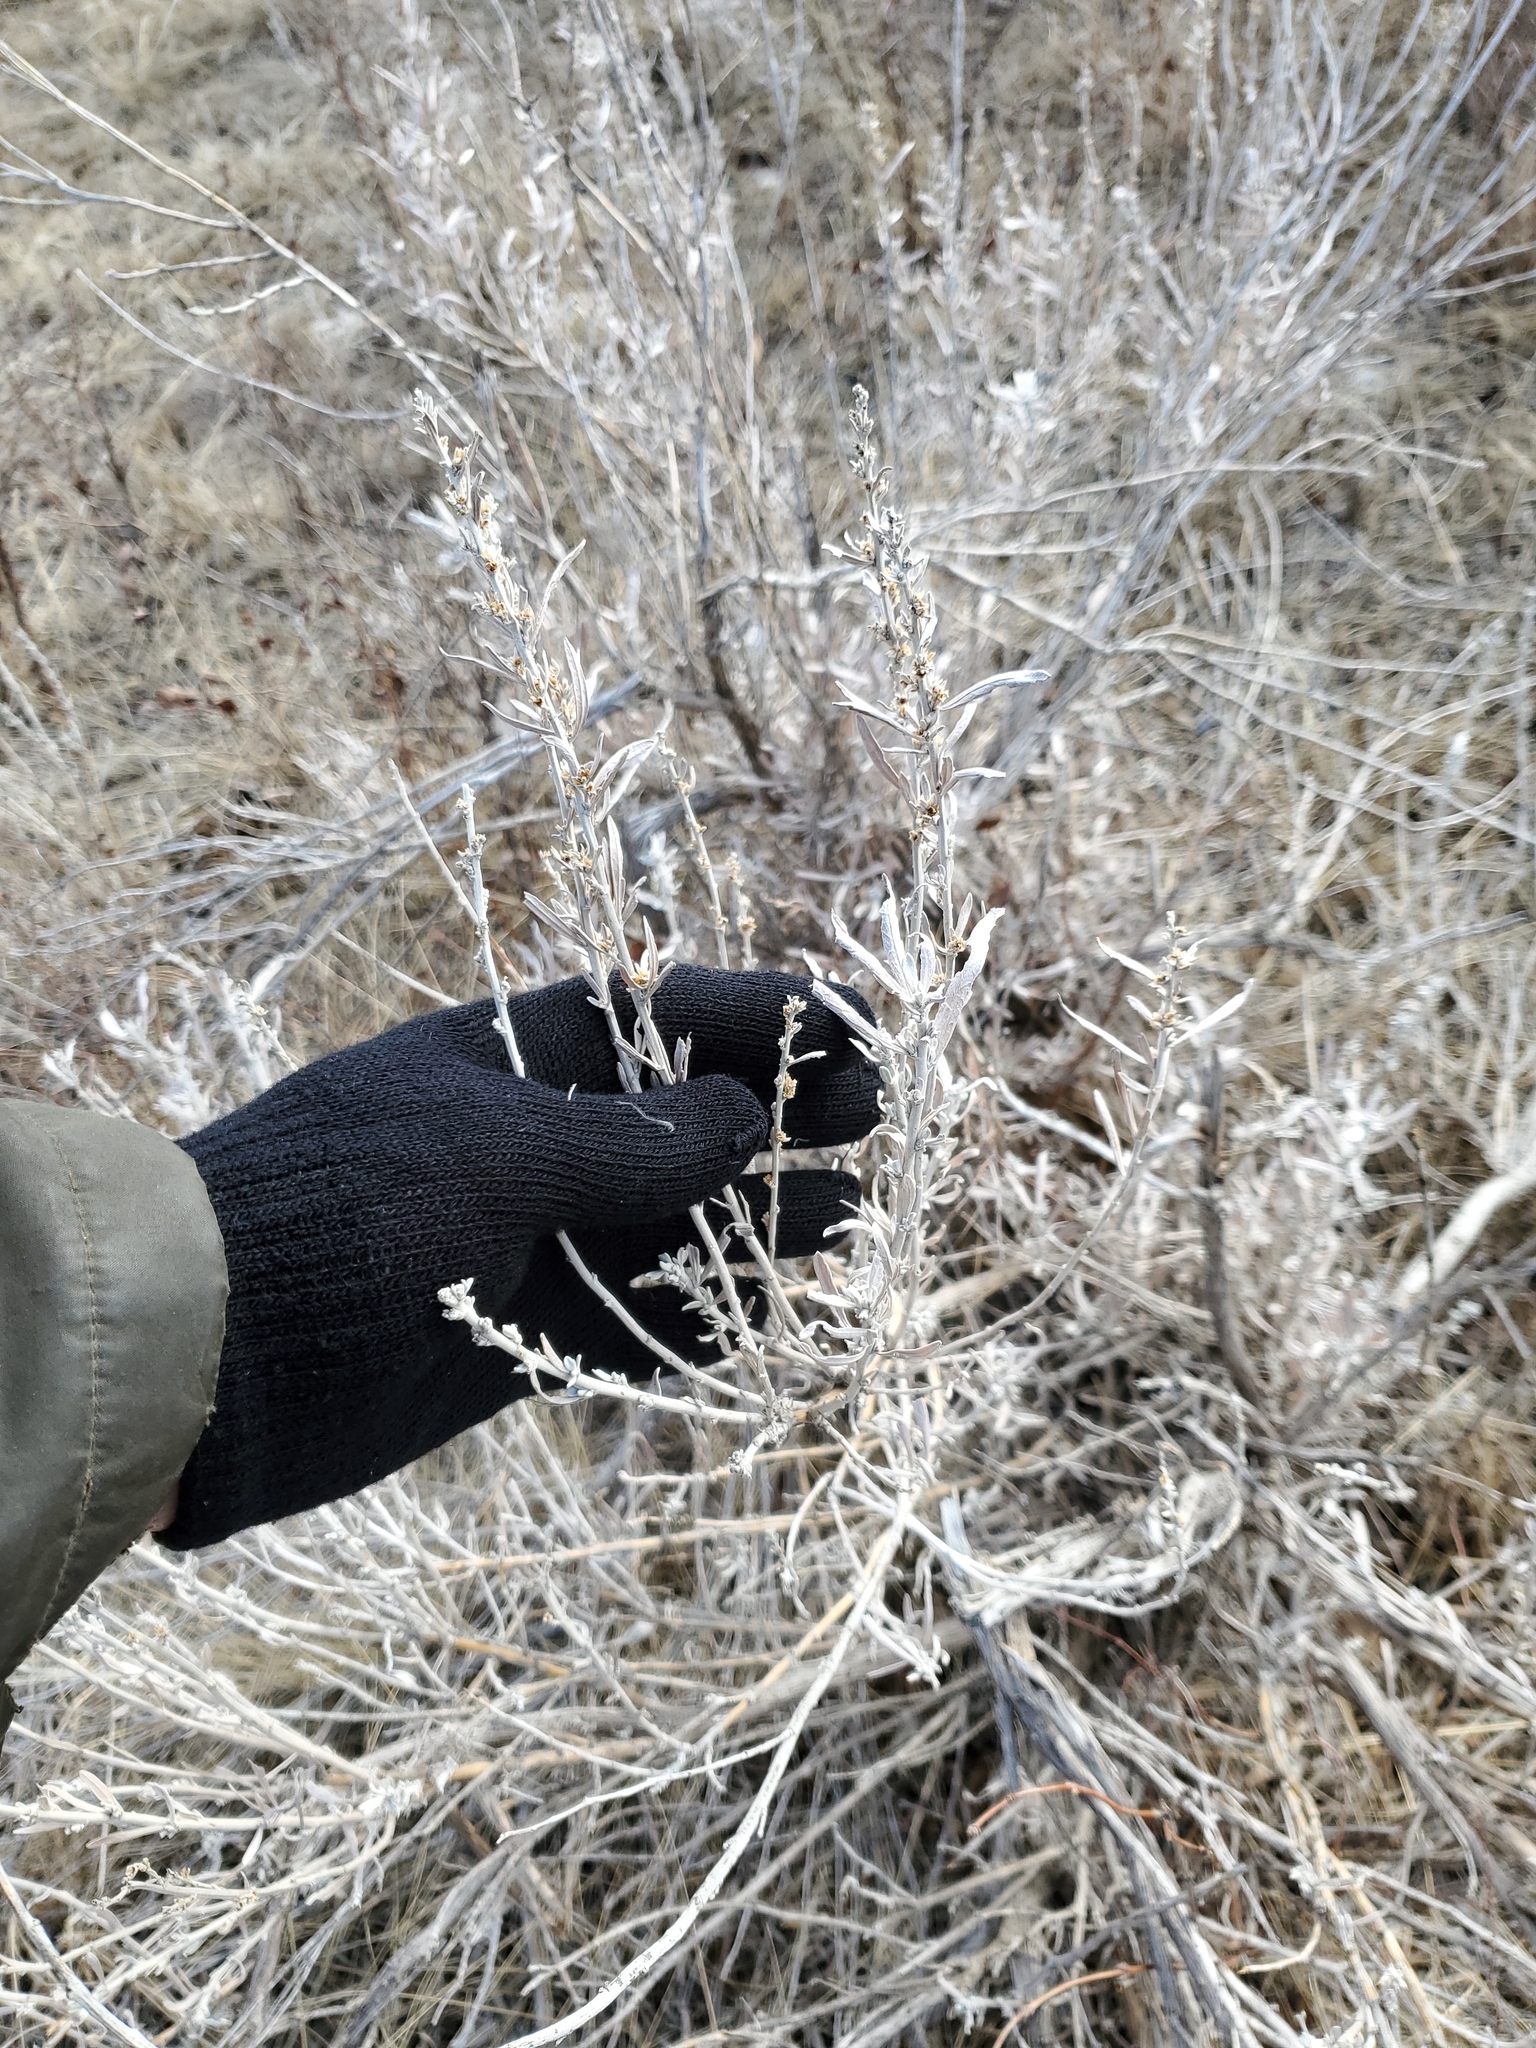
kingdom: Plantae
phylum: Tracheophyta
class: Magnoliopsida
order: Asterales
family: Asteraceae
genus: Artemisia
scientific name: Artemisia cana
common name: Silver sagebrush
